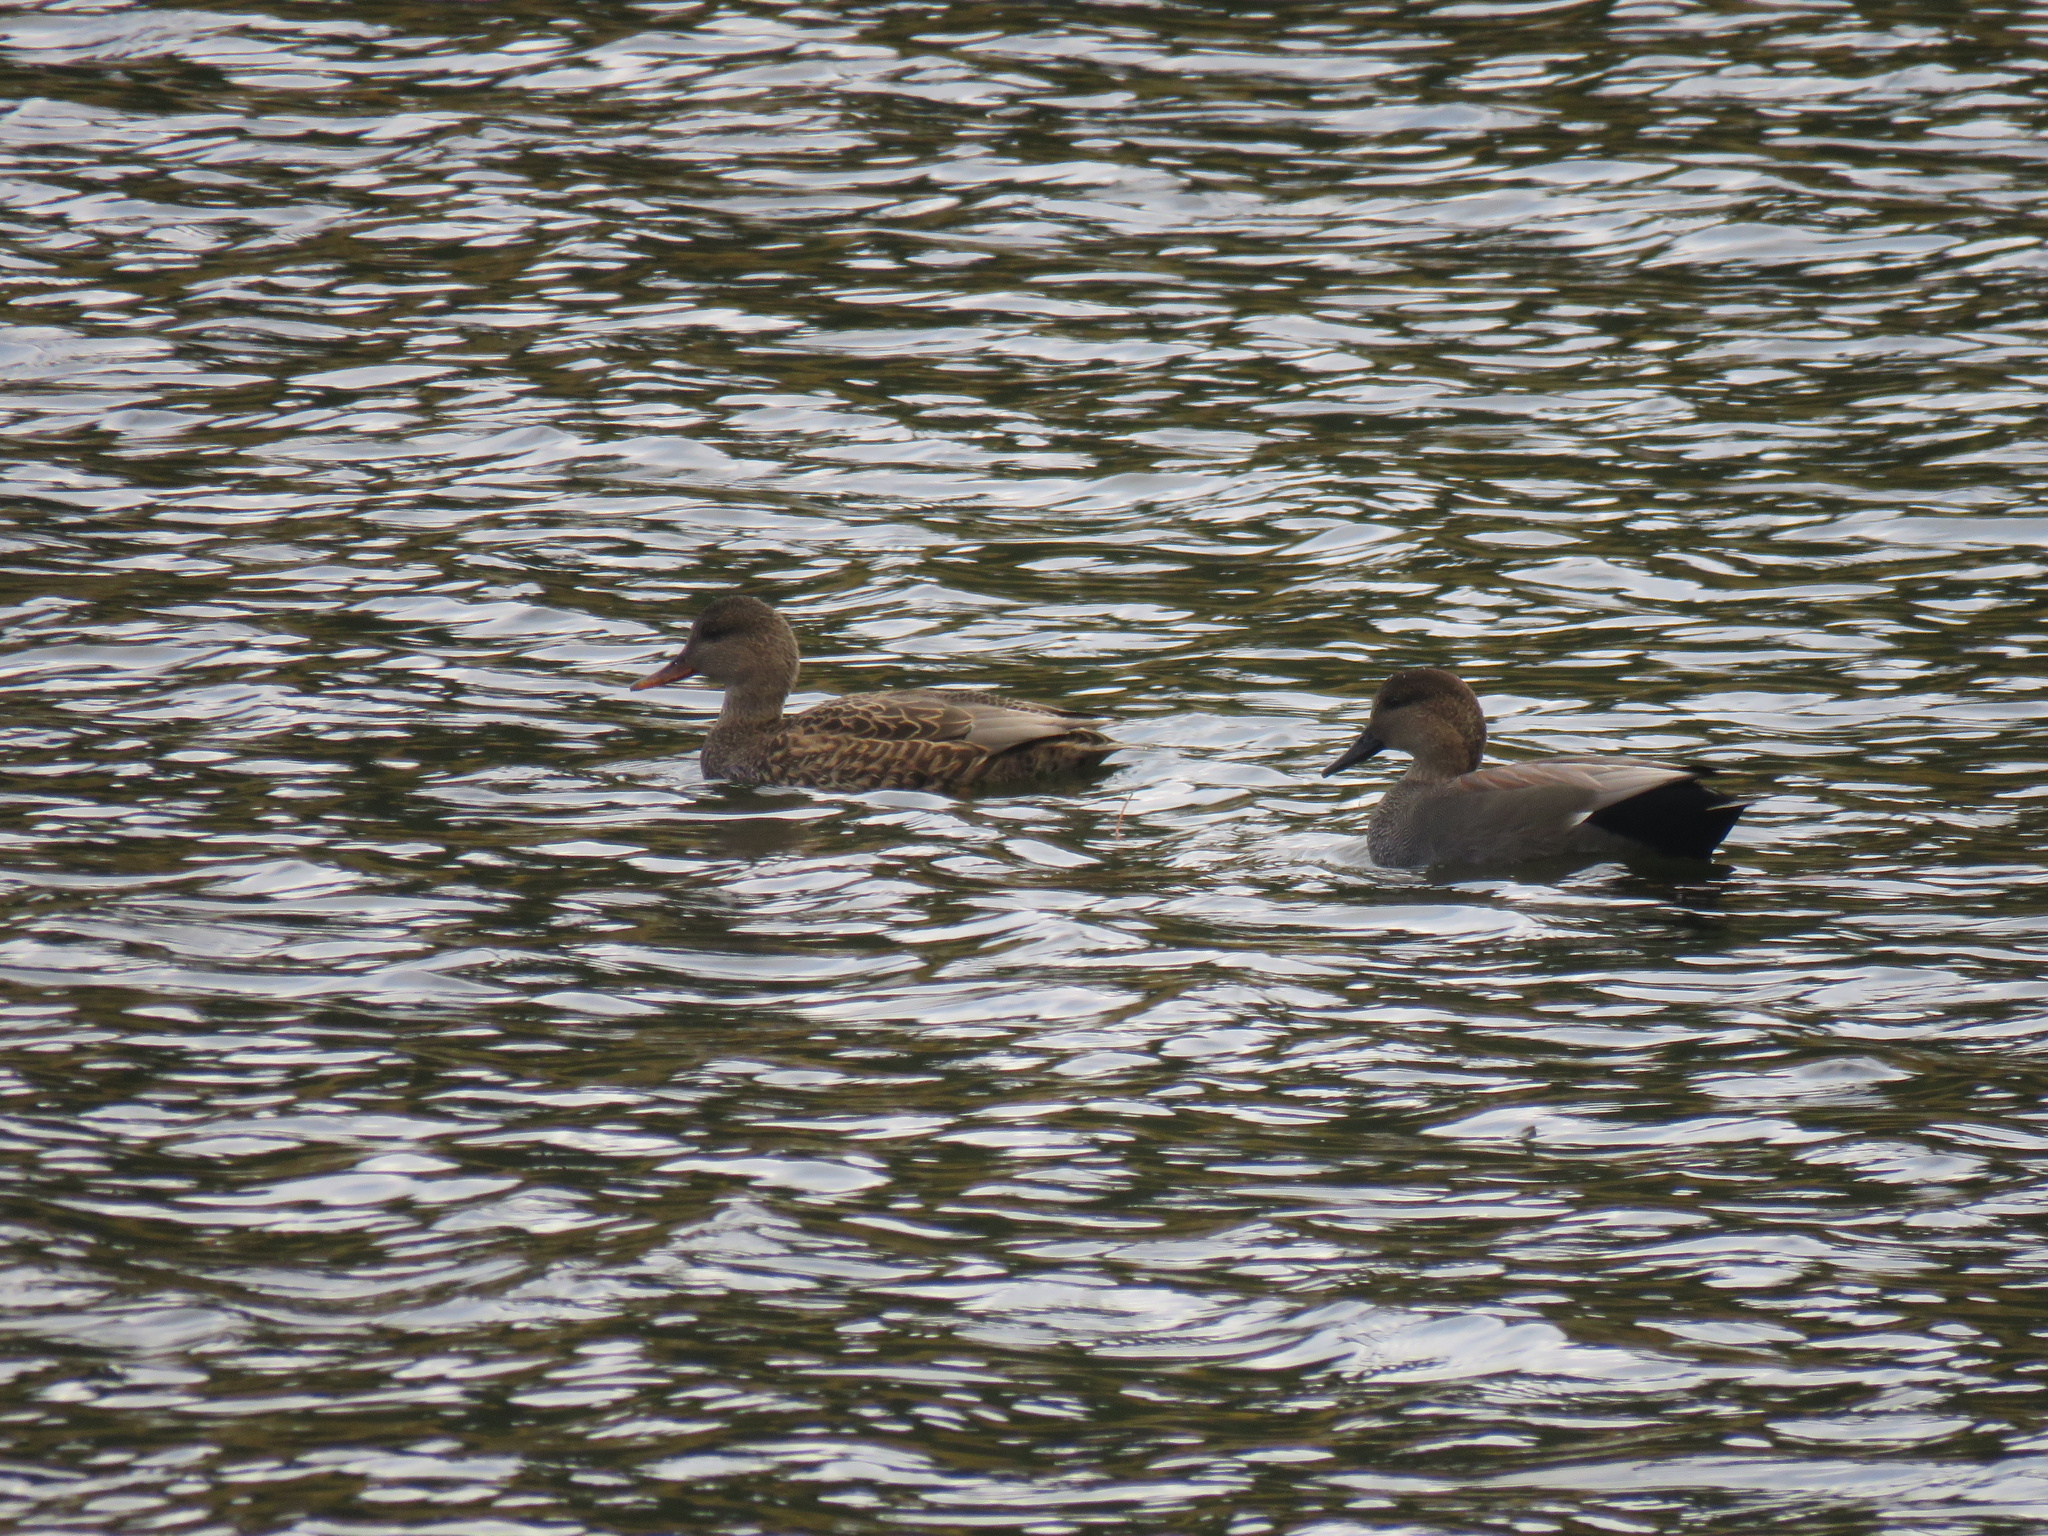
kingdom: Animalia
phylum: Chordata
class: Aves
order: Anseriformes
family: Anatidae
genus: Mareca
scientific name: Mareca strepera
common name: Gadwall
